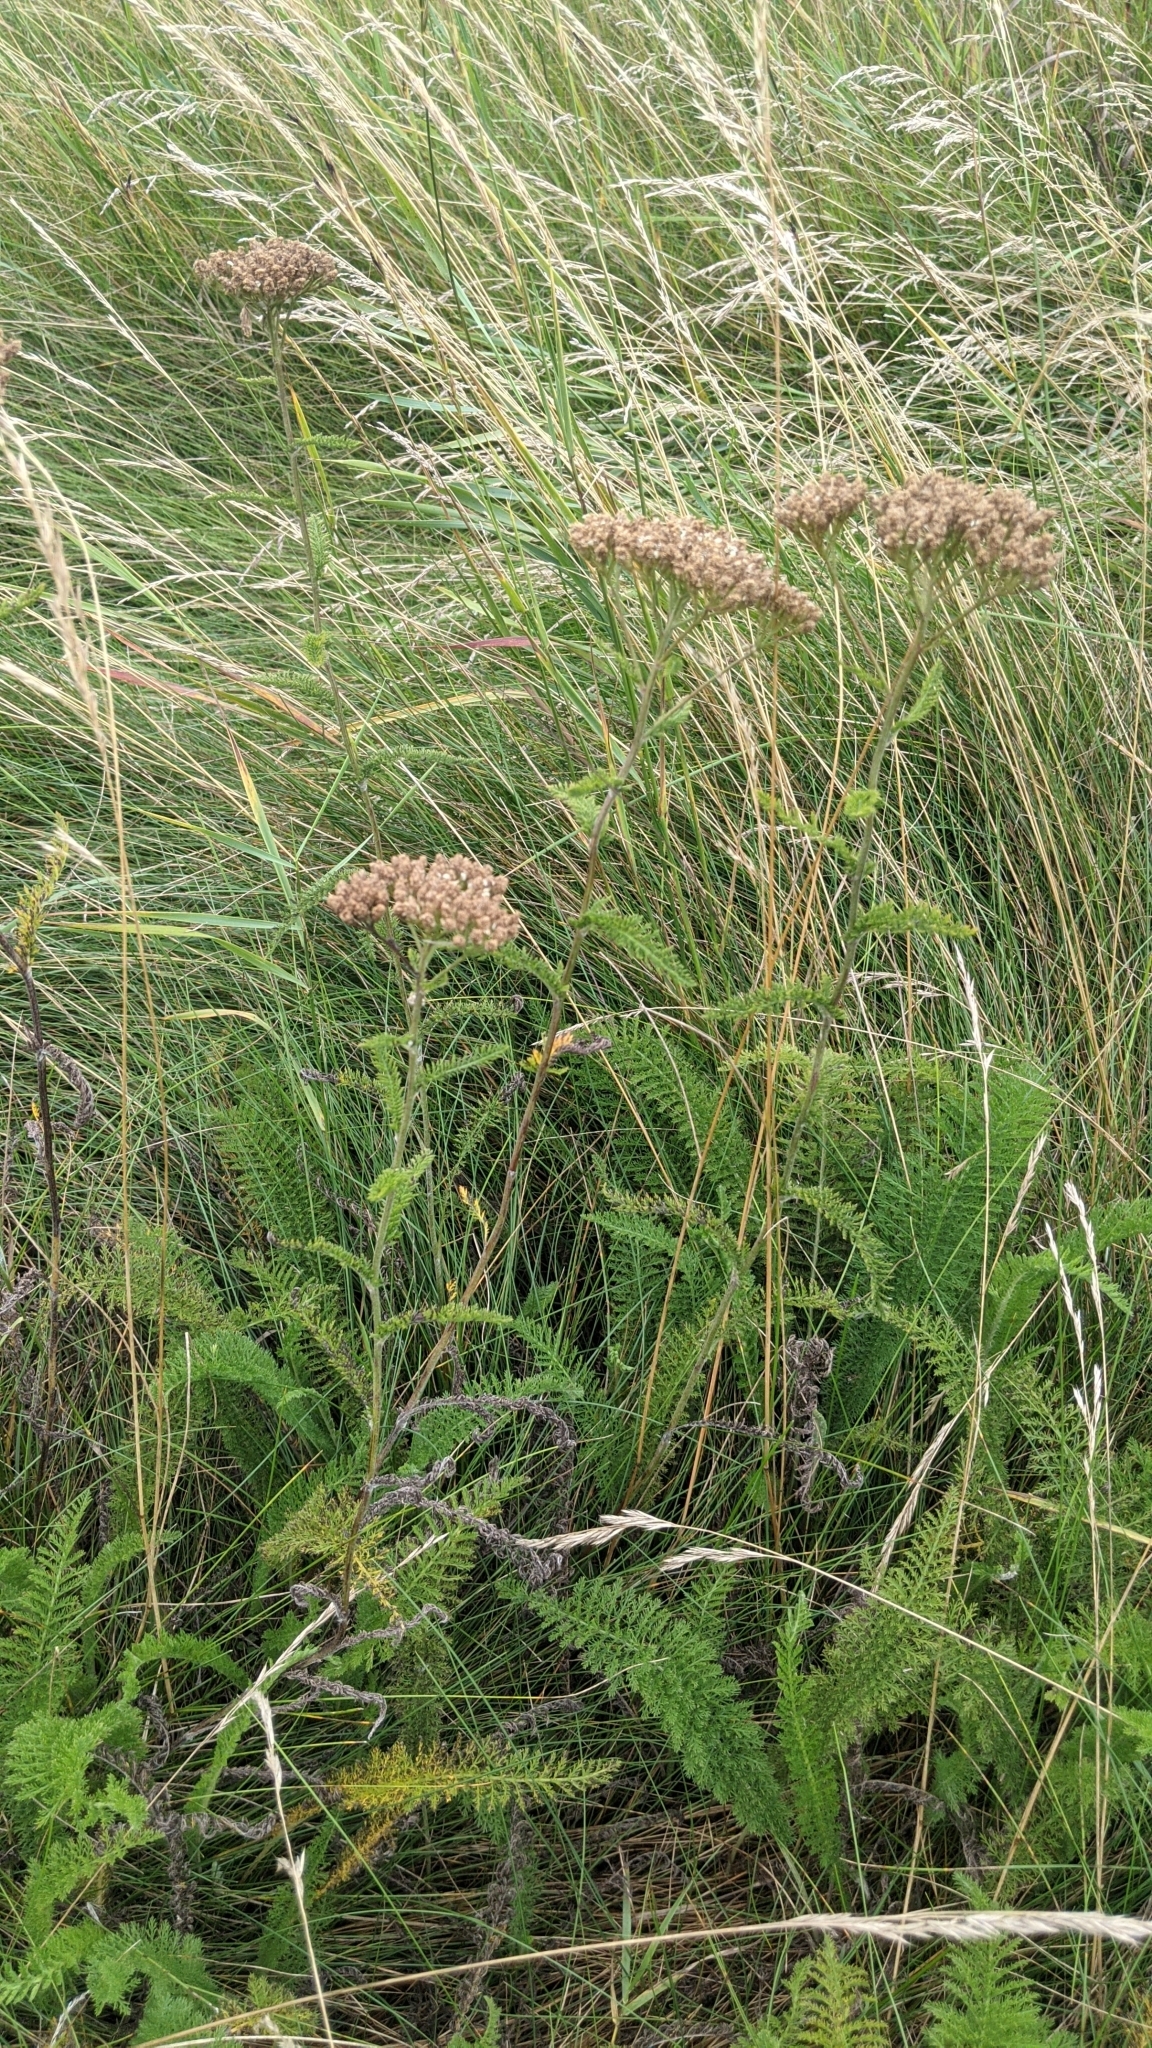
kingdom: Plantae
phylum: Tracheophyta
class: Magnoliopsida
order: Asterales
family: Asteraceae
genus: Achillea
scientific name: Achillea millefolium
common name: Yarrow
